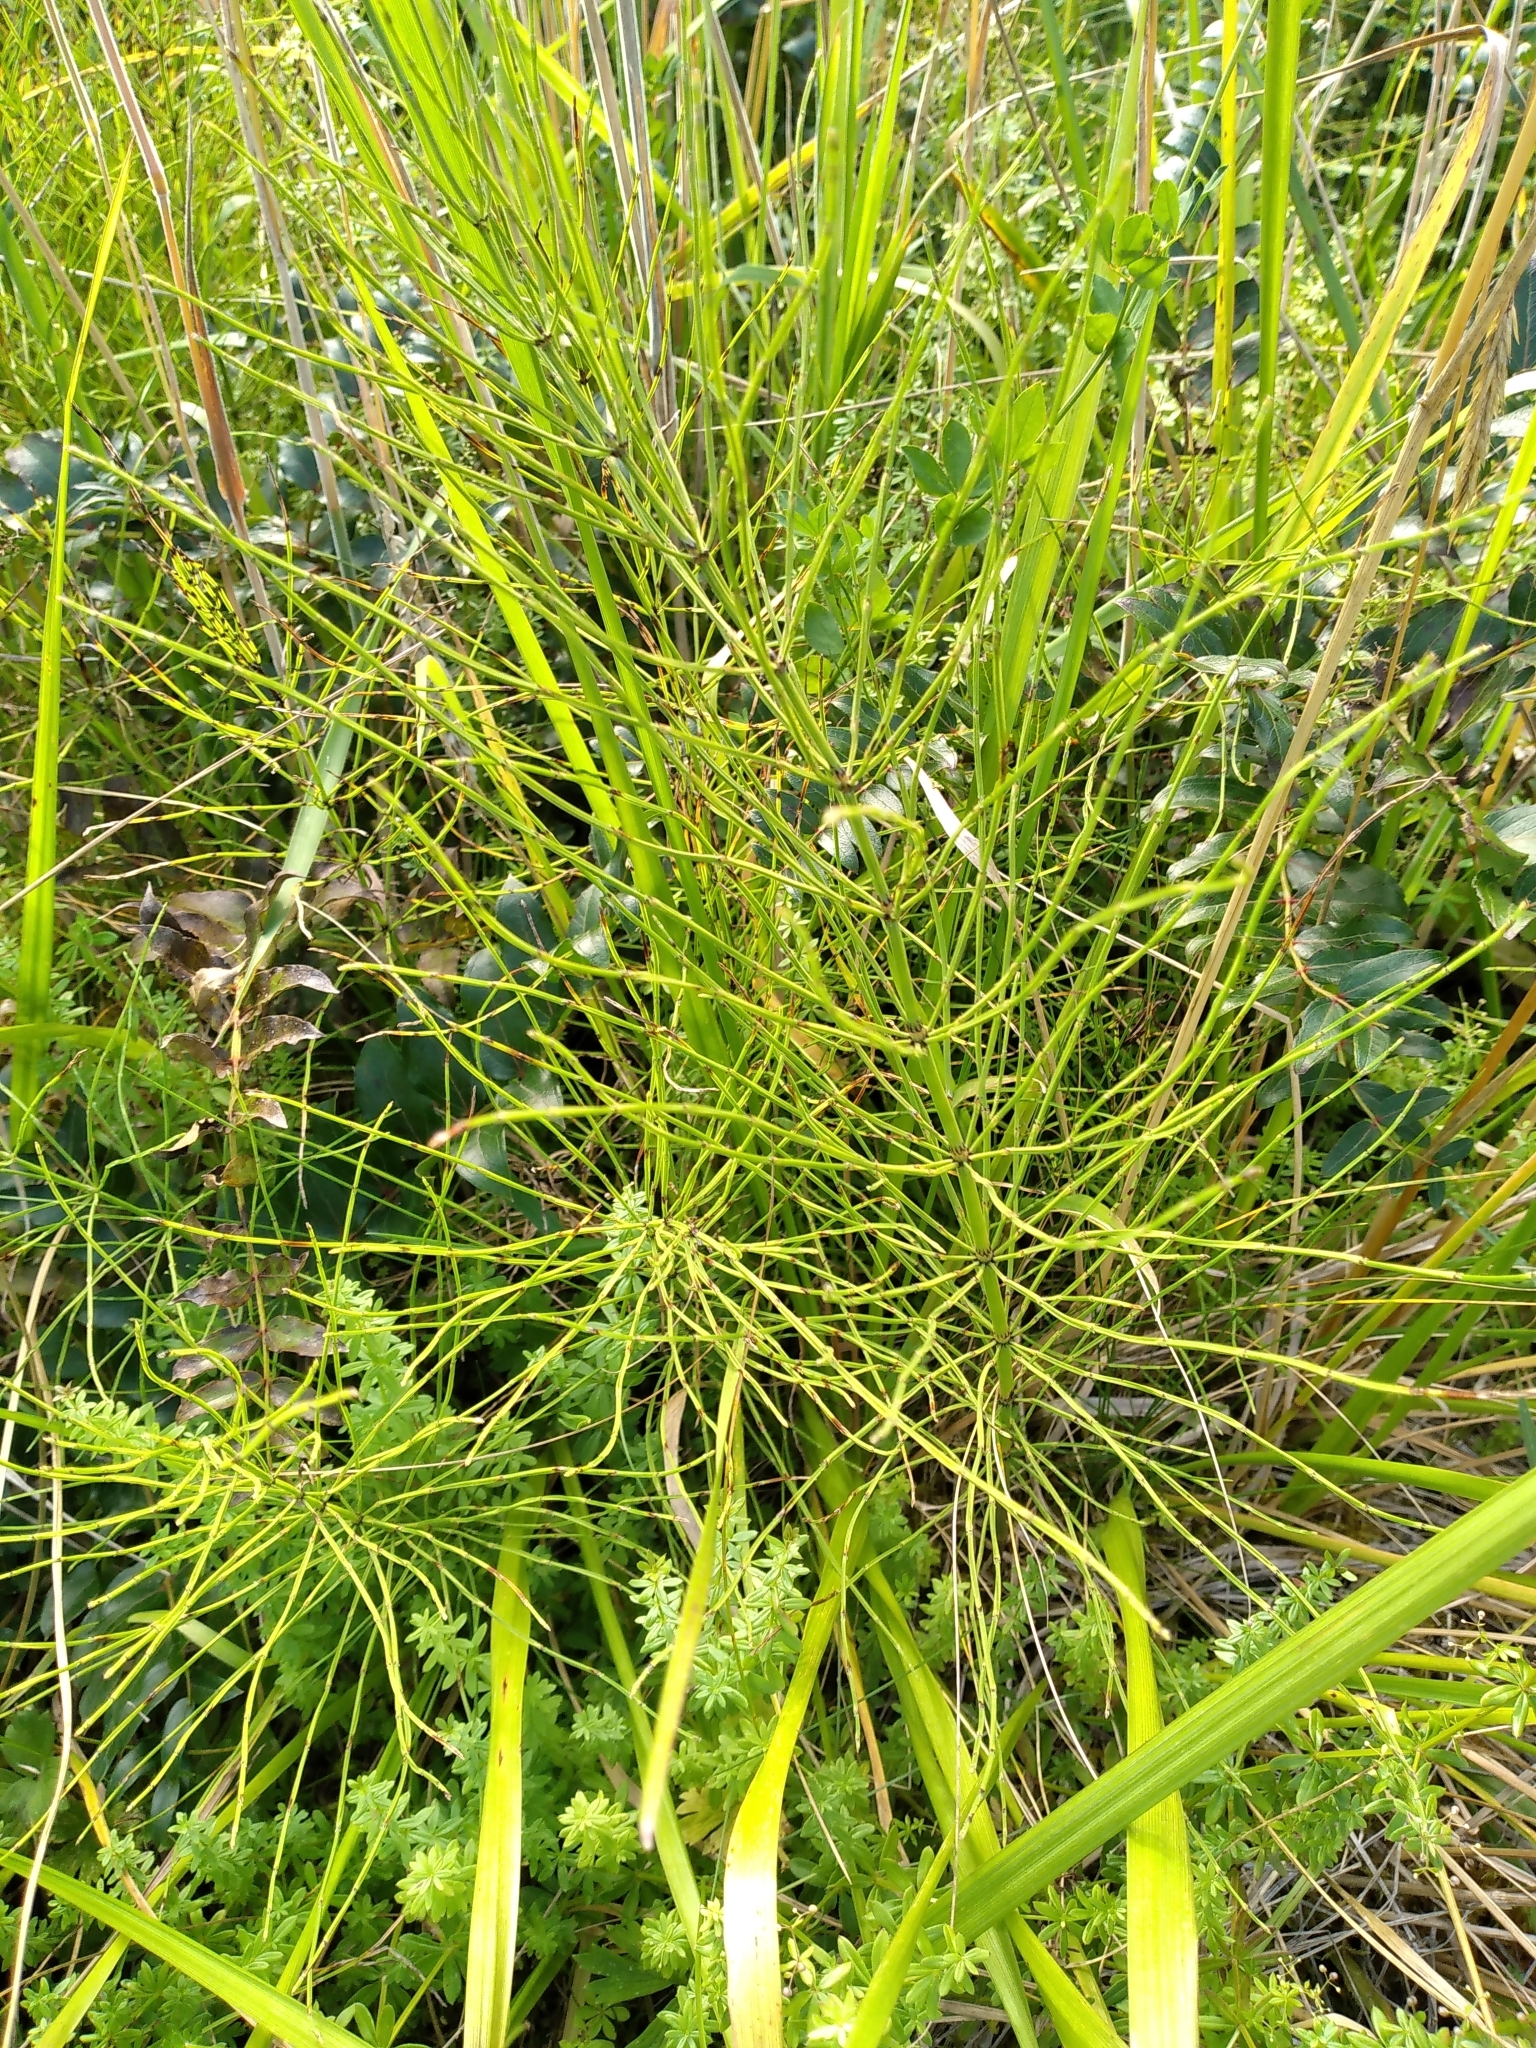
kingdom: Plantae
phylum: Tracheophyta
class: Polypodiopsida
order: Equisetales
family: Equisetaceae
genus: Equisetum
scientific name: Equisetum arvense
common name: Field horsetail
